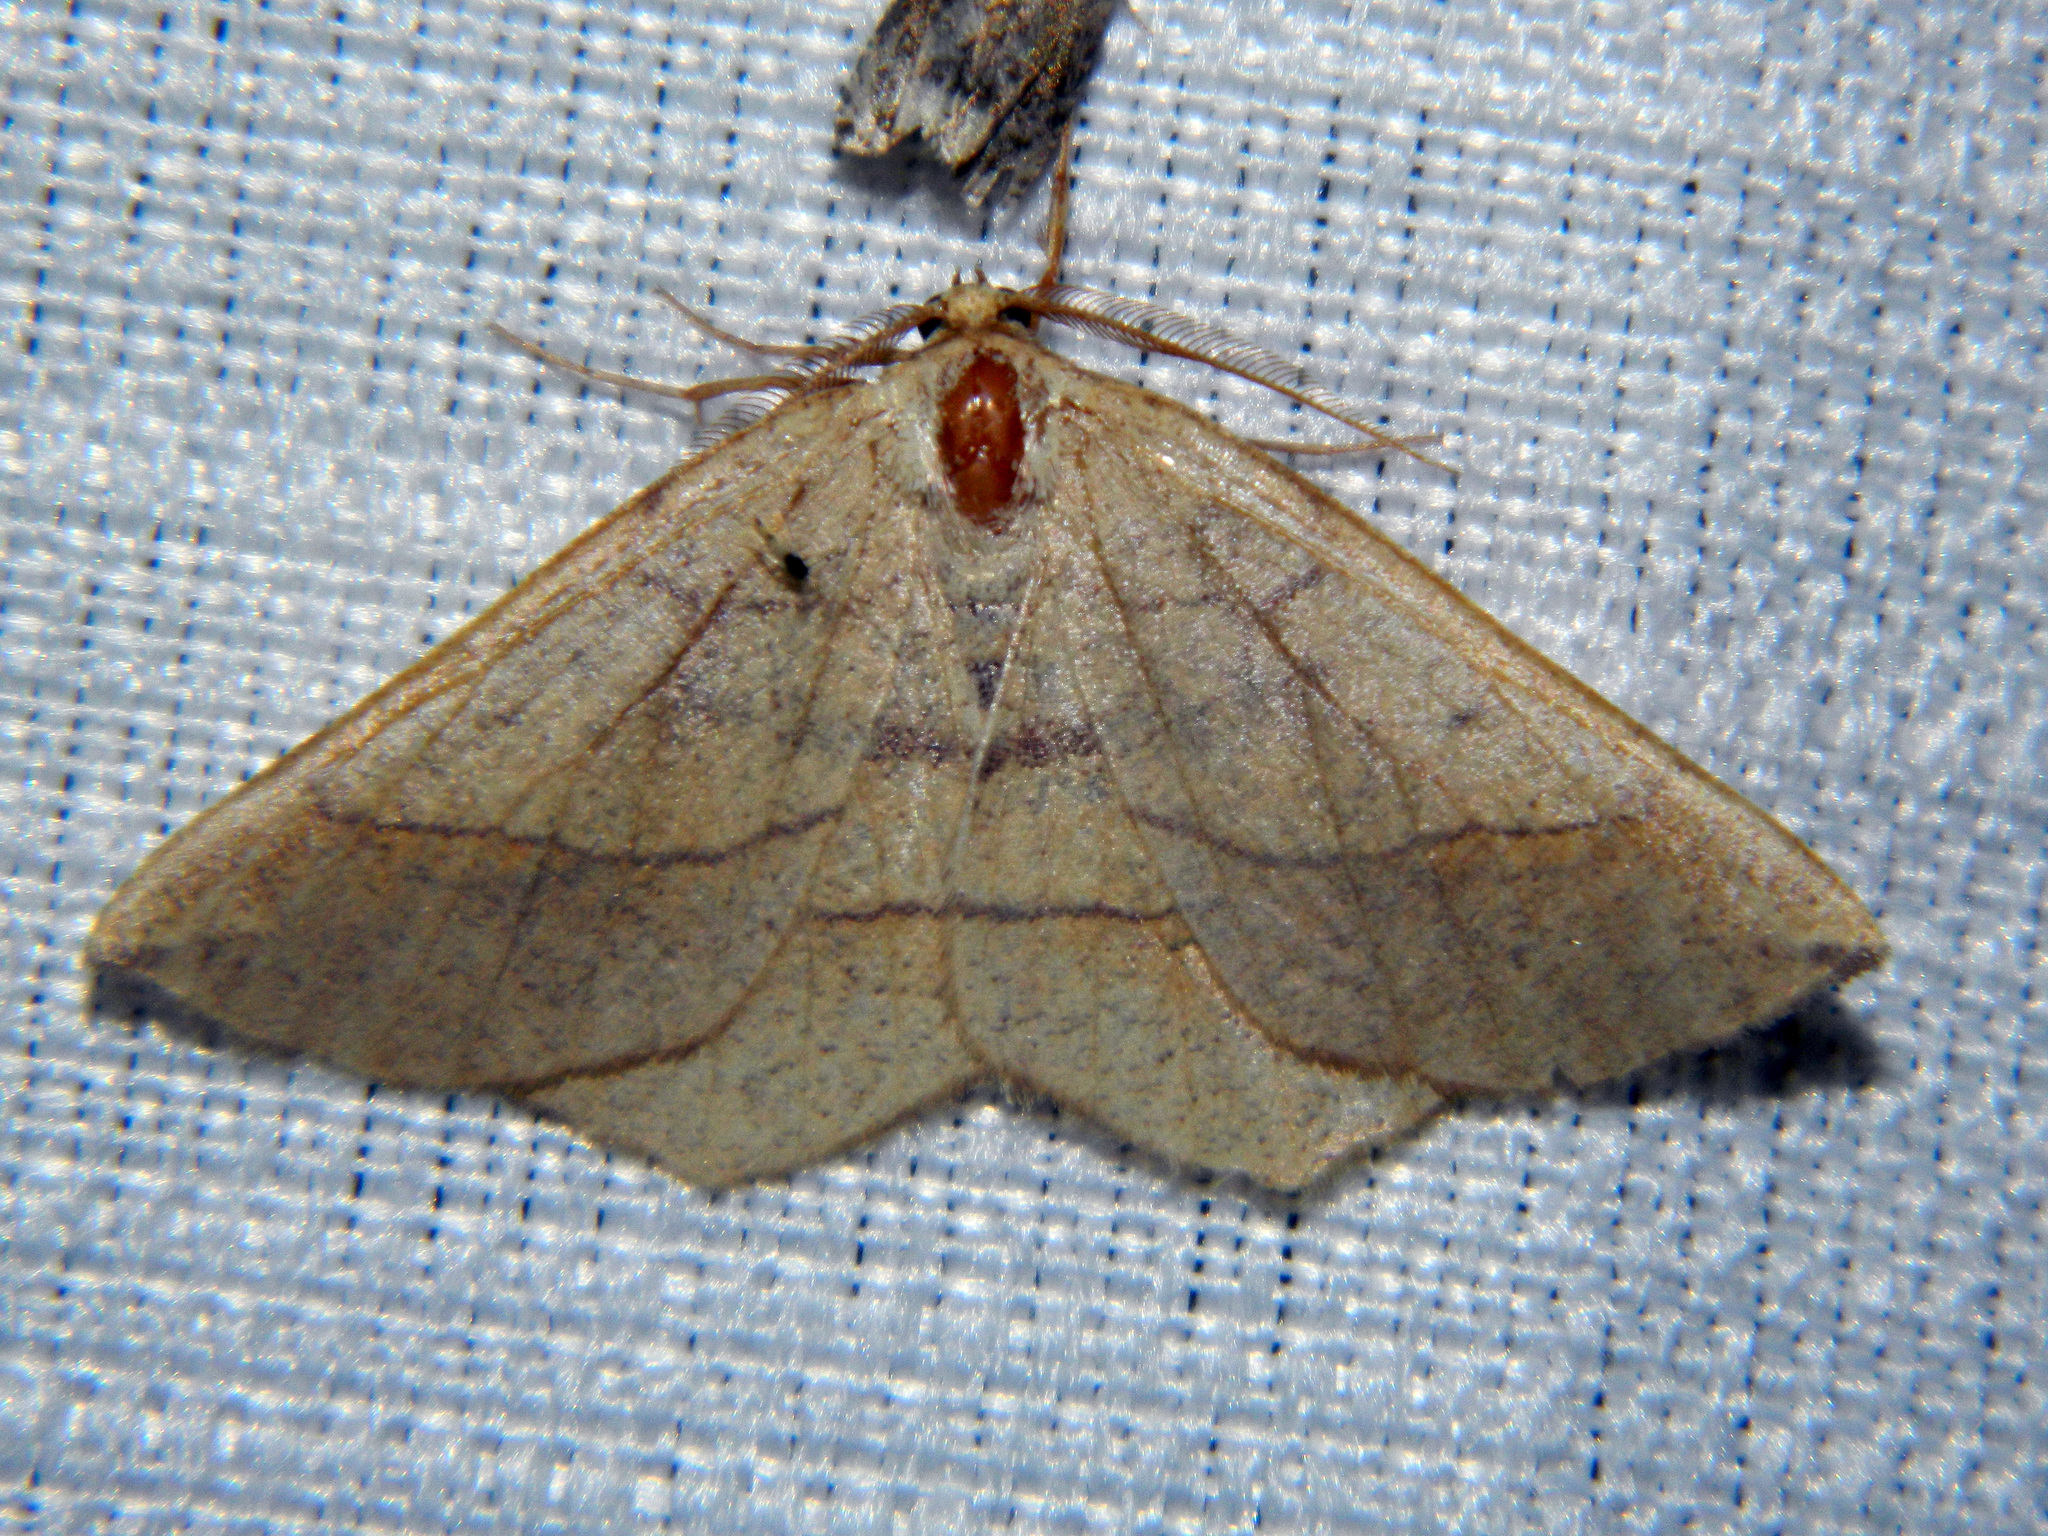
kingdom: Animalia
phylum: Arthropoda
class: Insecta
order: Lepidoptera
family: Geometridae
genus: Lambdina
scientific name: Lambdina fiscellaria
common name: Hemlock looper
